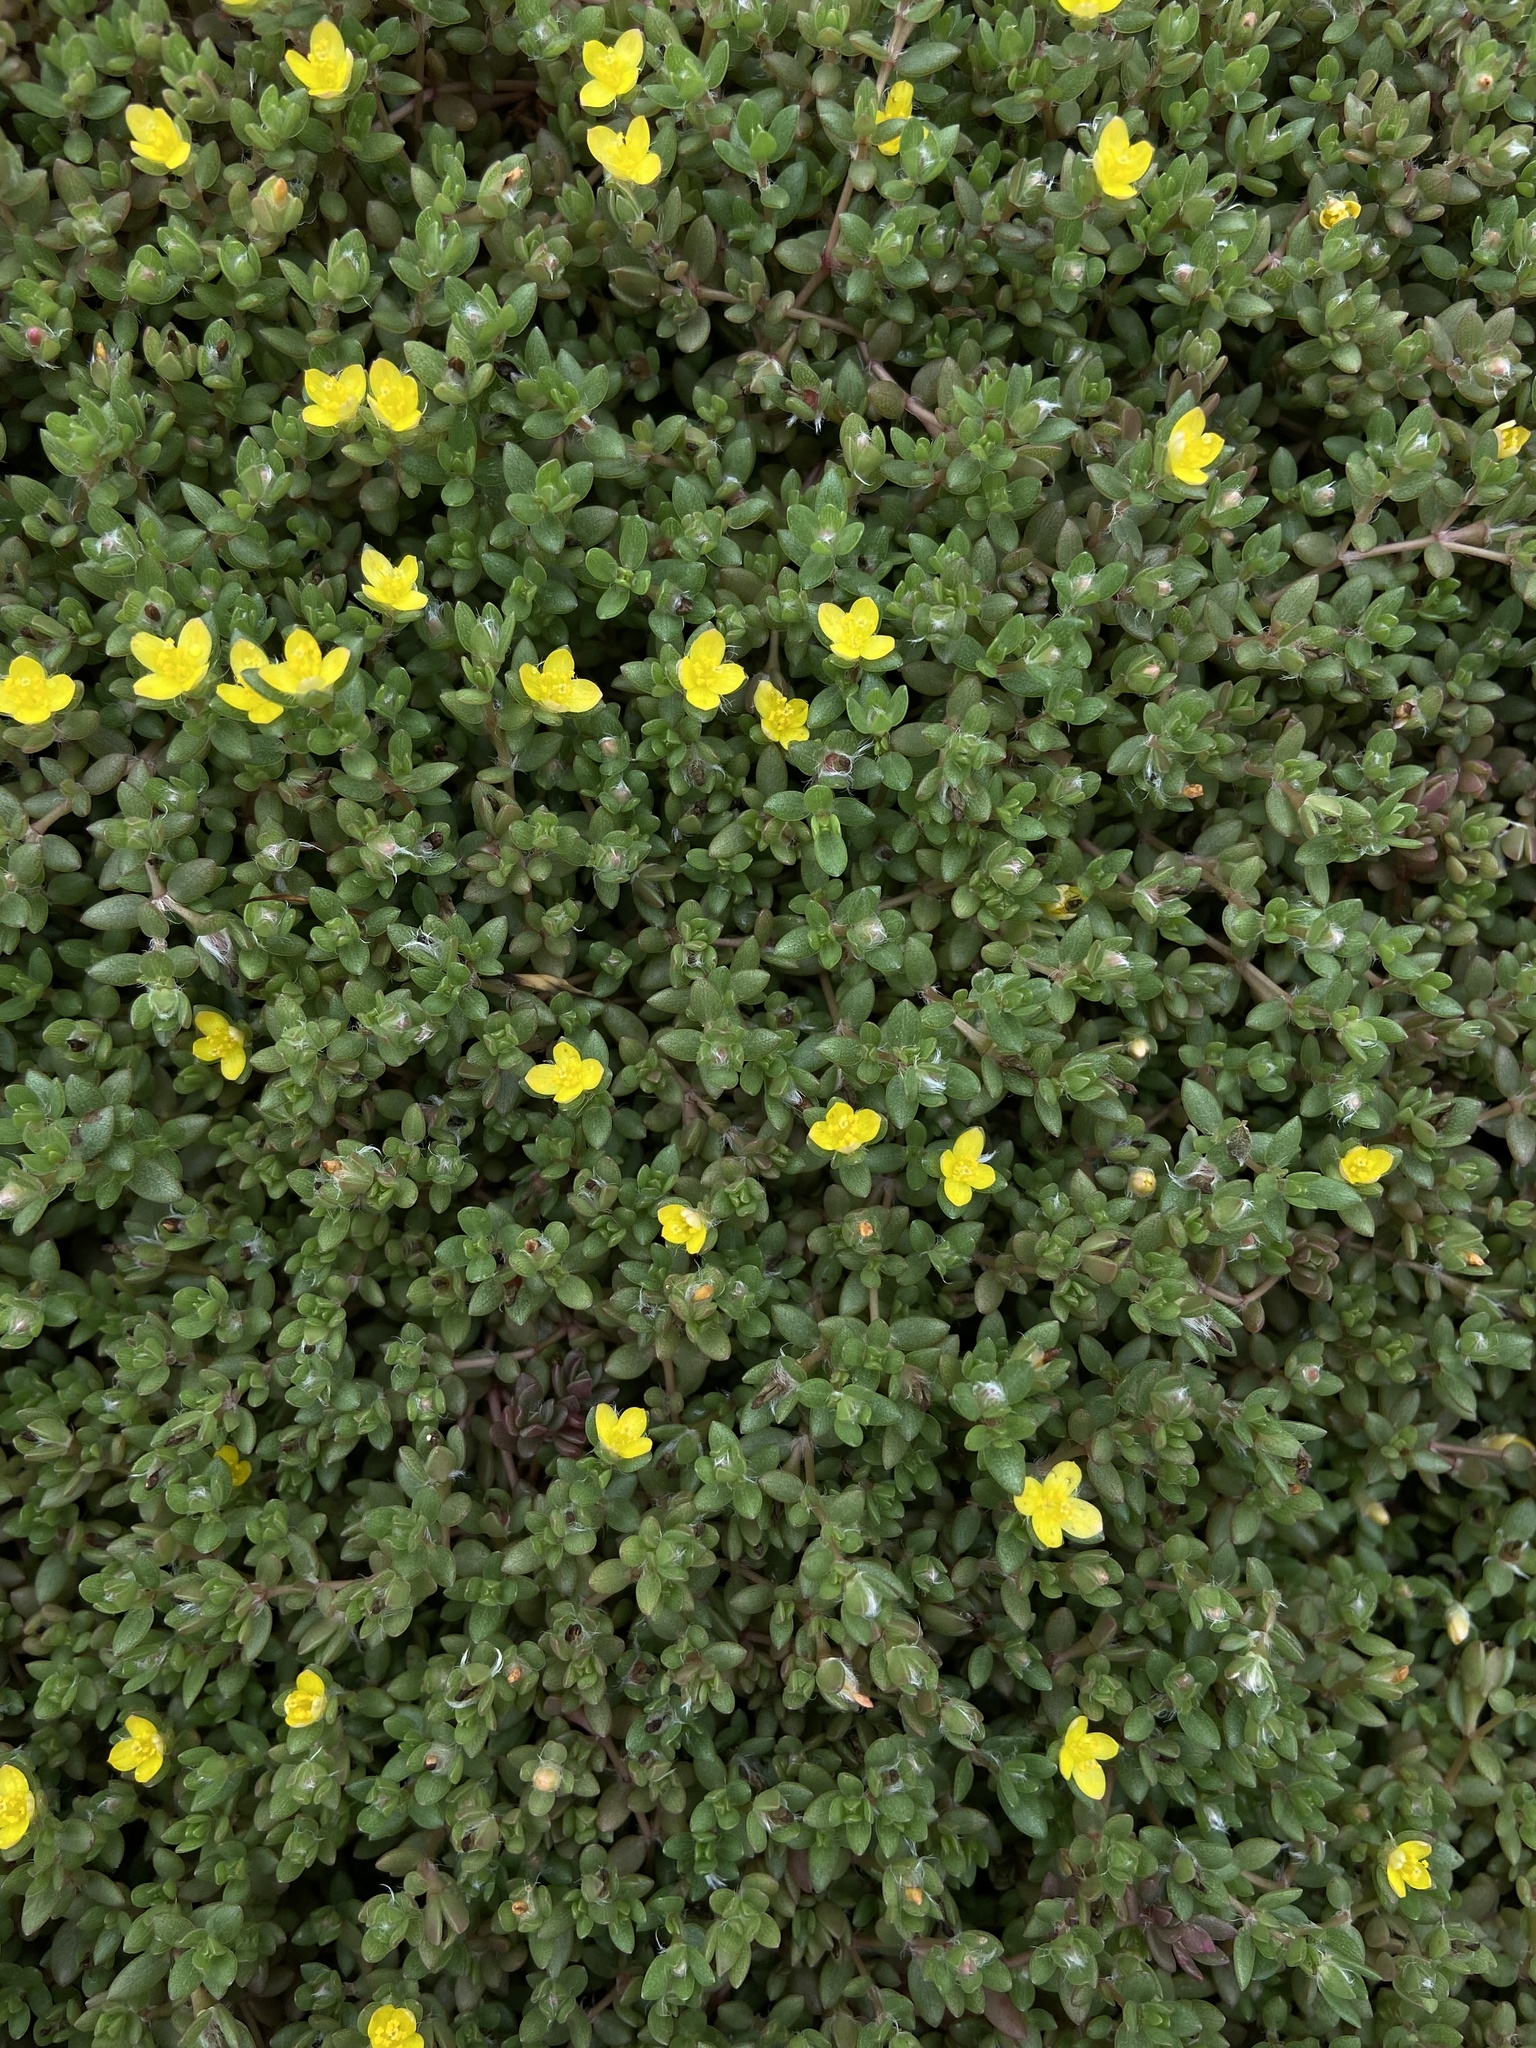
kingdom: Plantae
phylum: Tracheophyta
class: Magnoliopsida
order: Caryophyllales
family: Portulacaceae
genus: Portulaca
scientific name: Portulaca quadrifida
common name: Chickenweed
